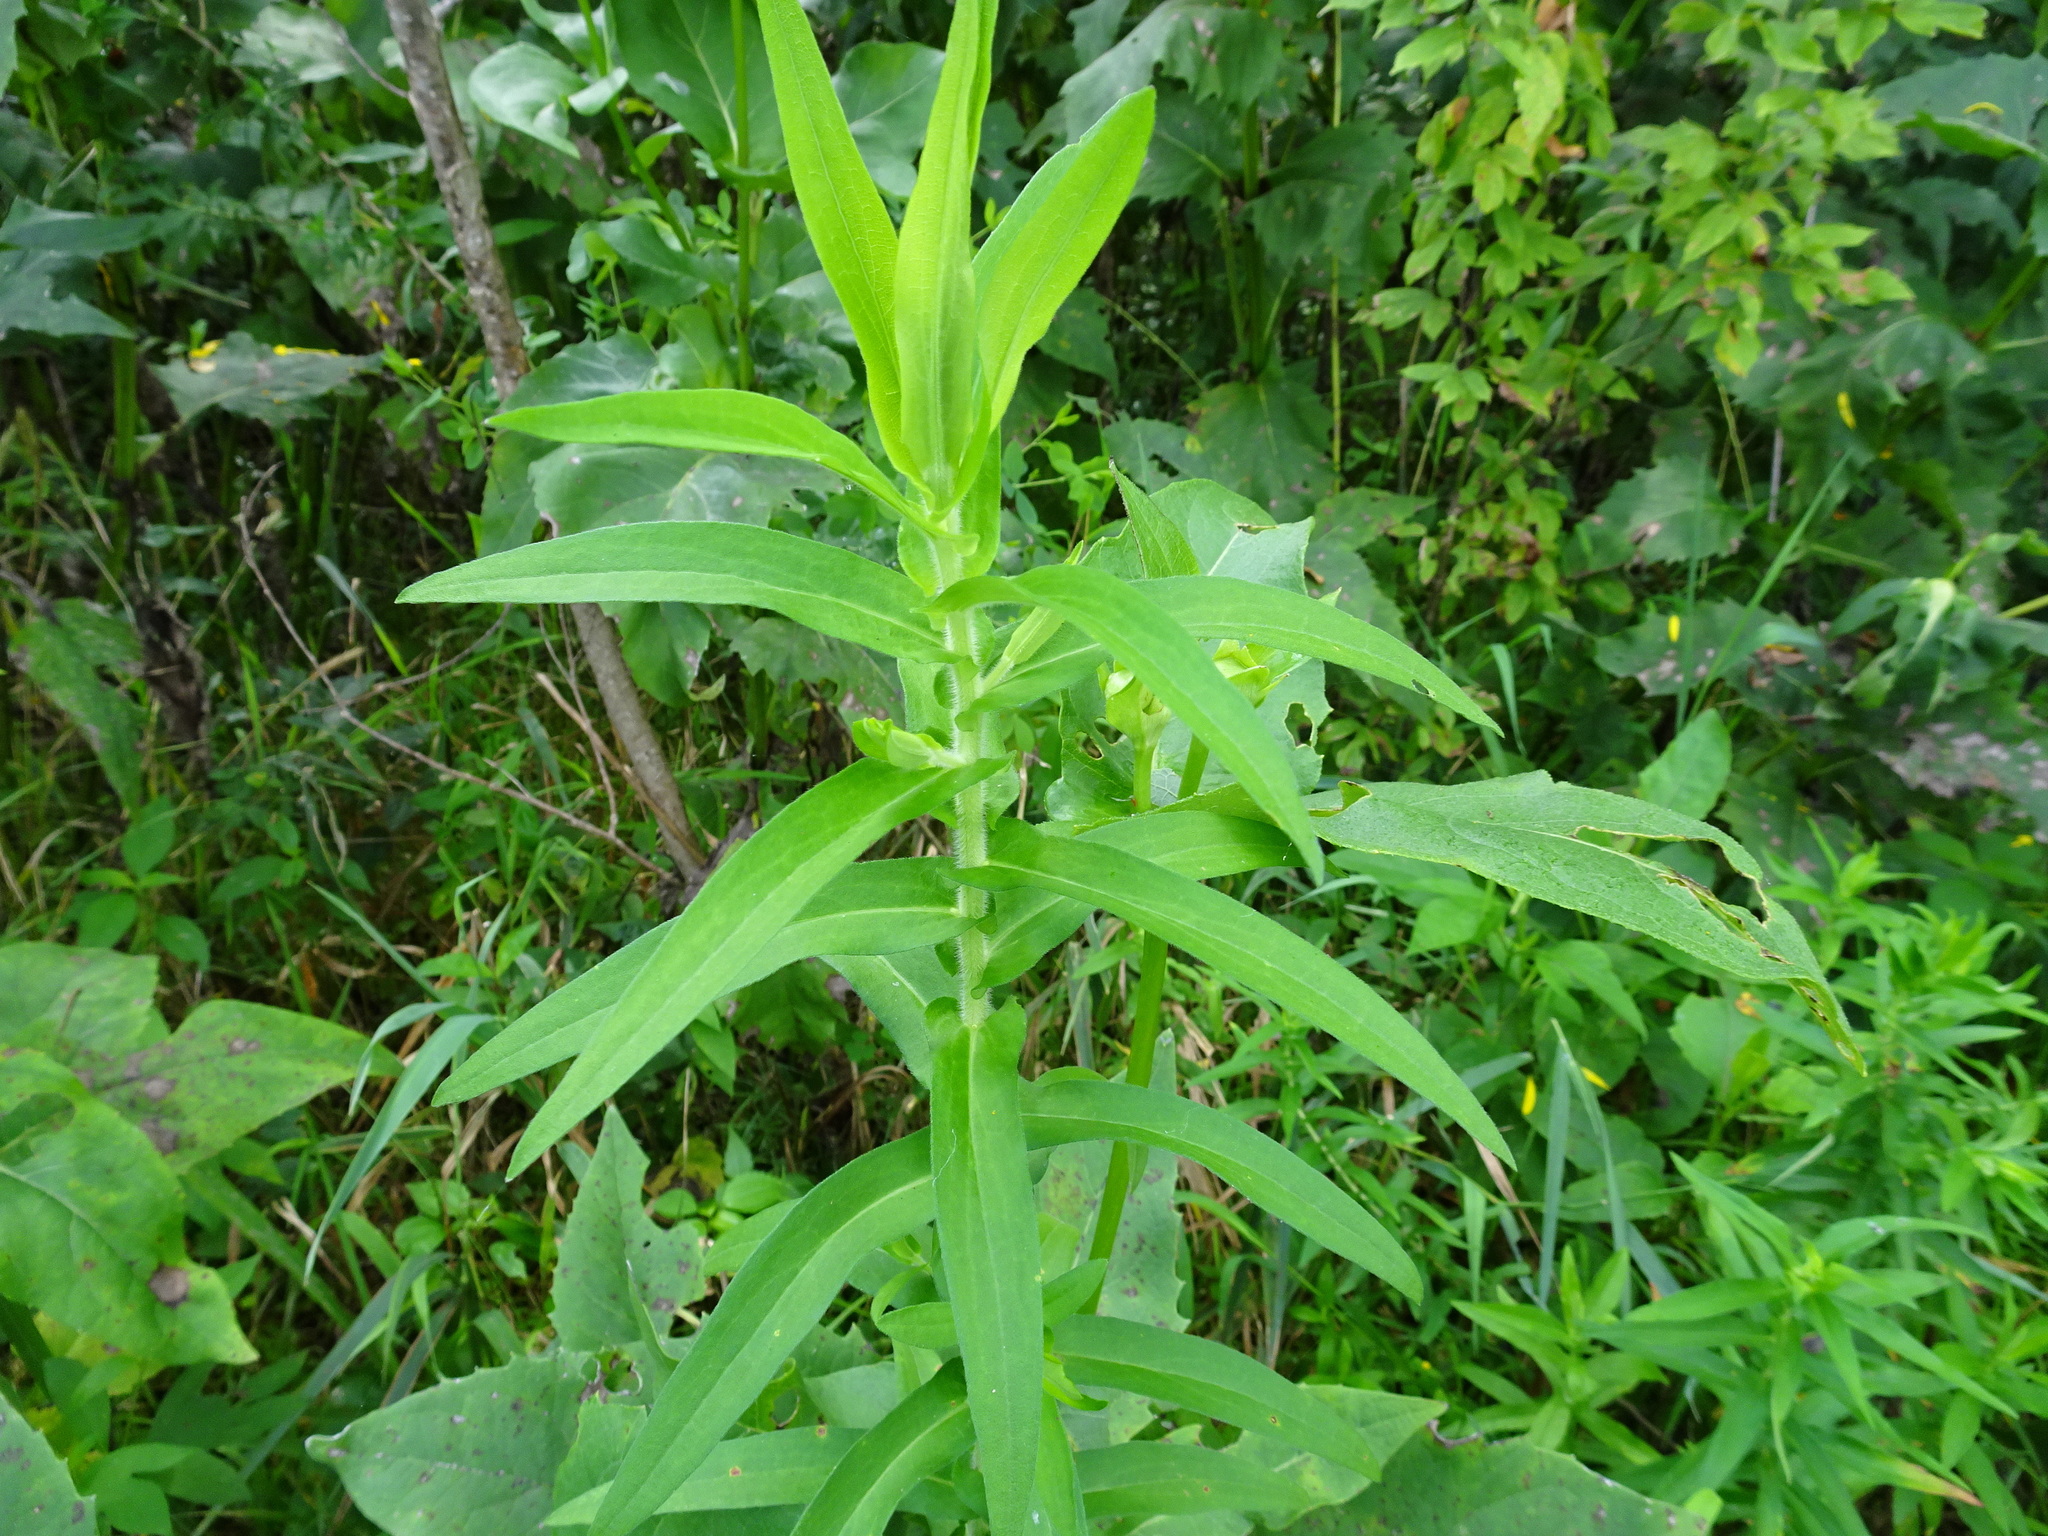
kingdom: Plantae
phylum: Tracheophyta
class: Magnoliopsida
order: Asterales
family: Asteraceae
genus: Symphyotrichum
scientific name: Symphyotrichum novae-angliae
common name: Michaelmas daisy
